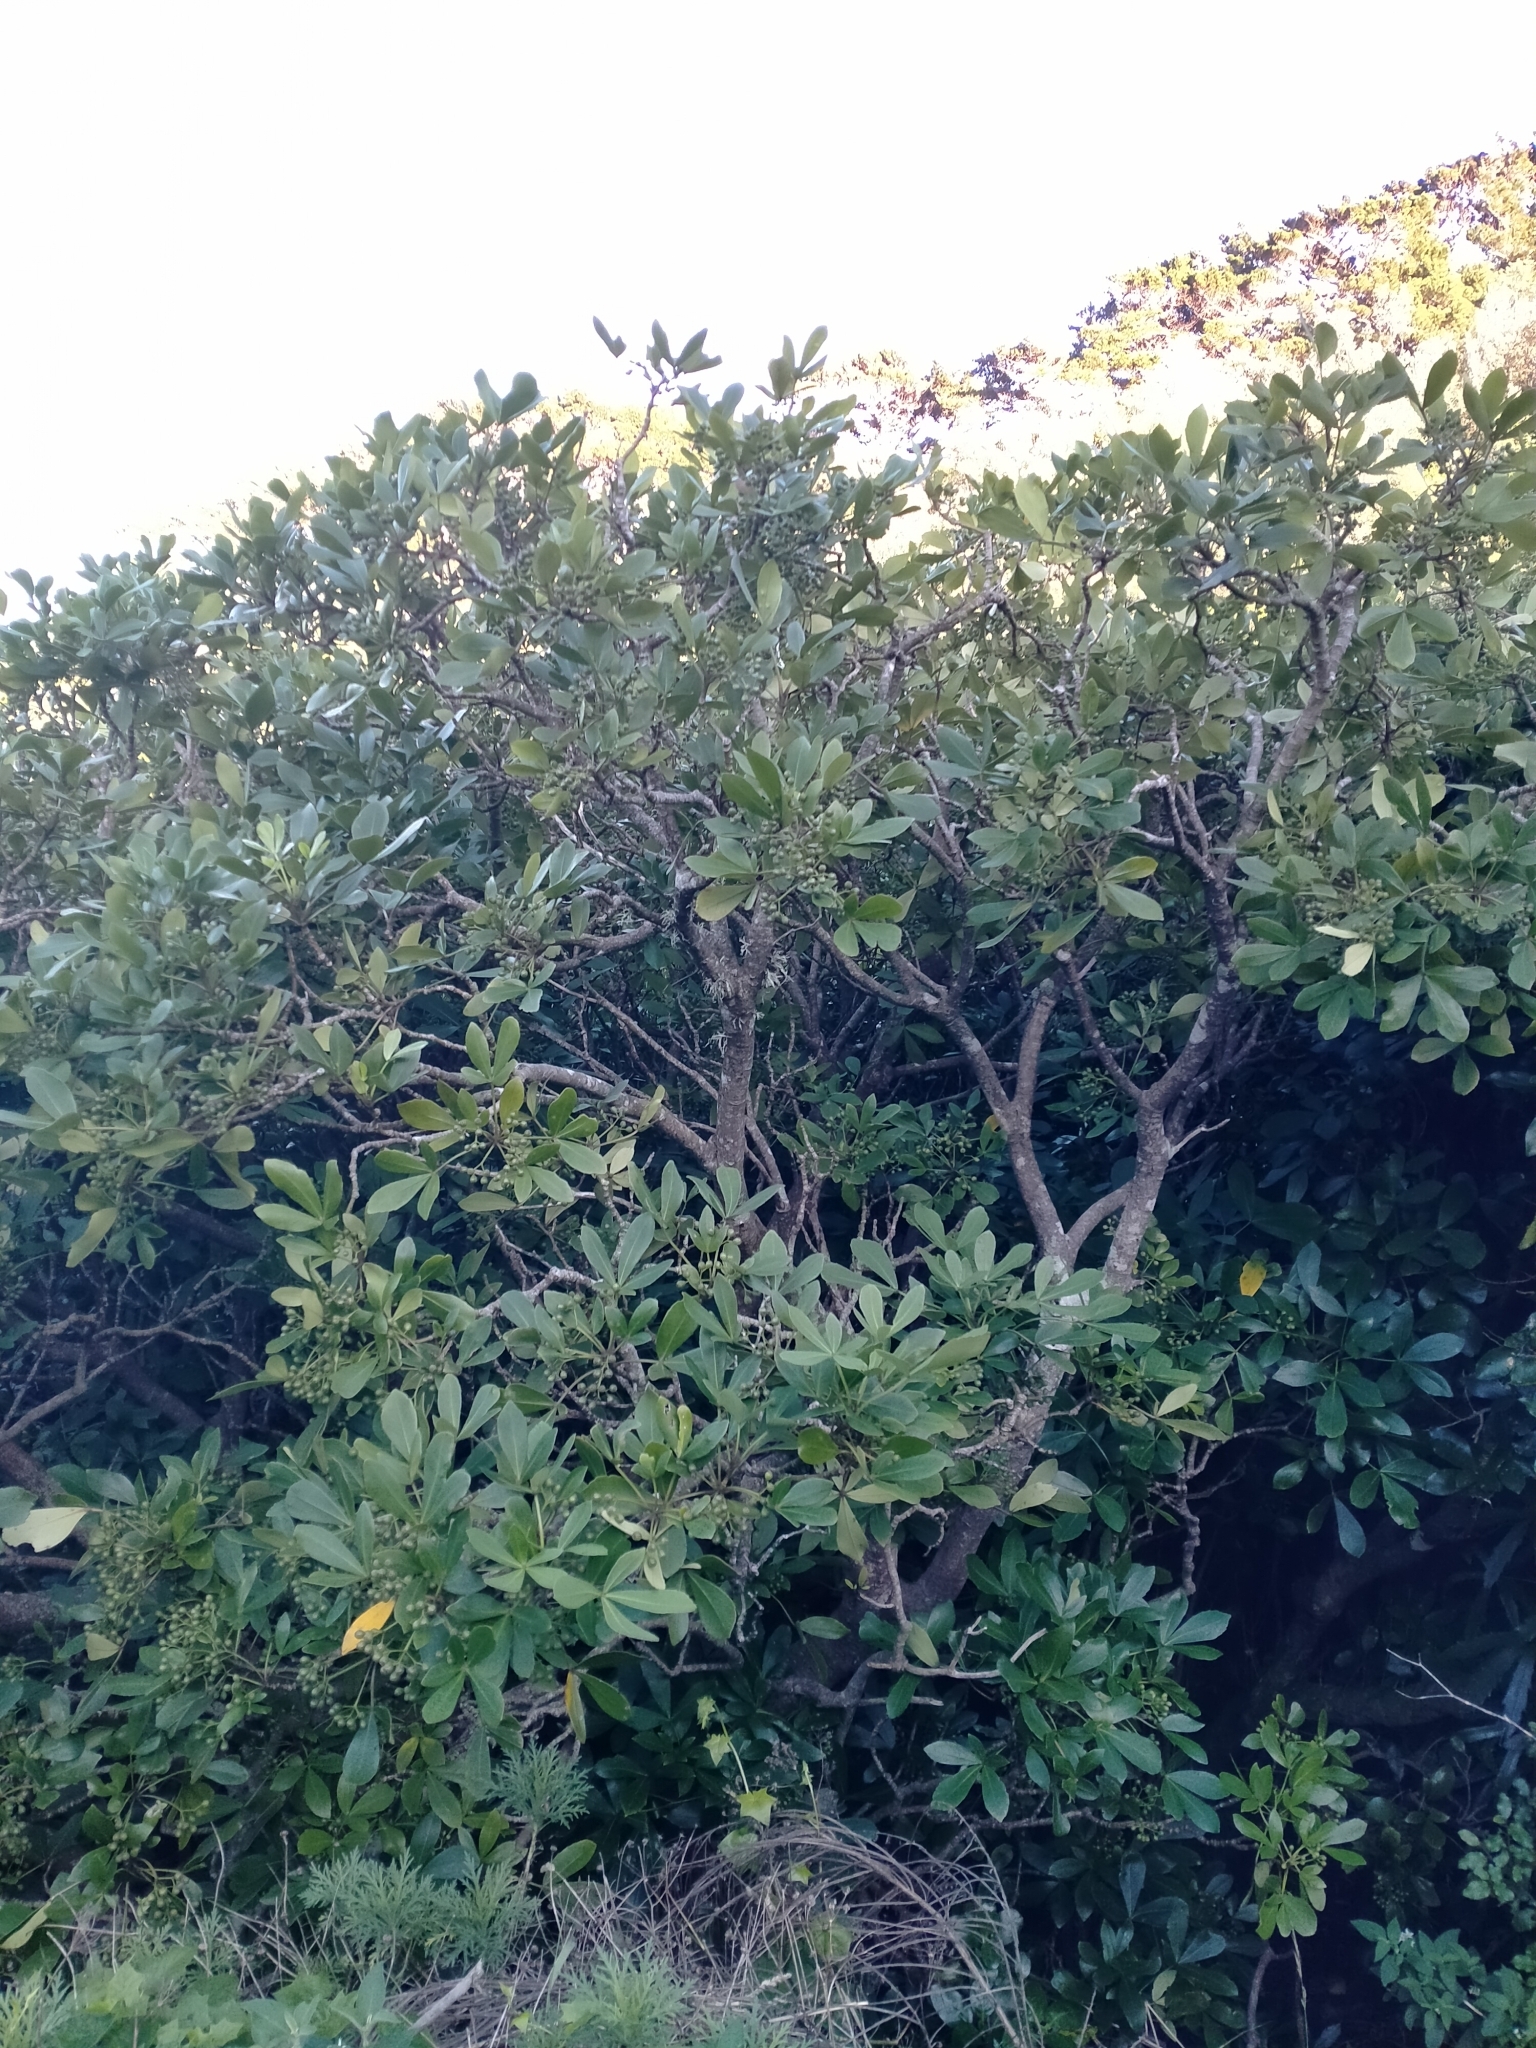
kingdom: Plantae
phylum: Tracheophyta
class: Magnoliopsida
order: Apiales
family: Araliaceae
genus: Pseudopanax
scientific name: Pseudopanax lessonii
